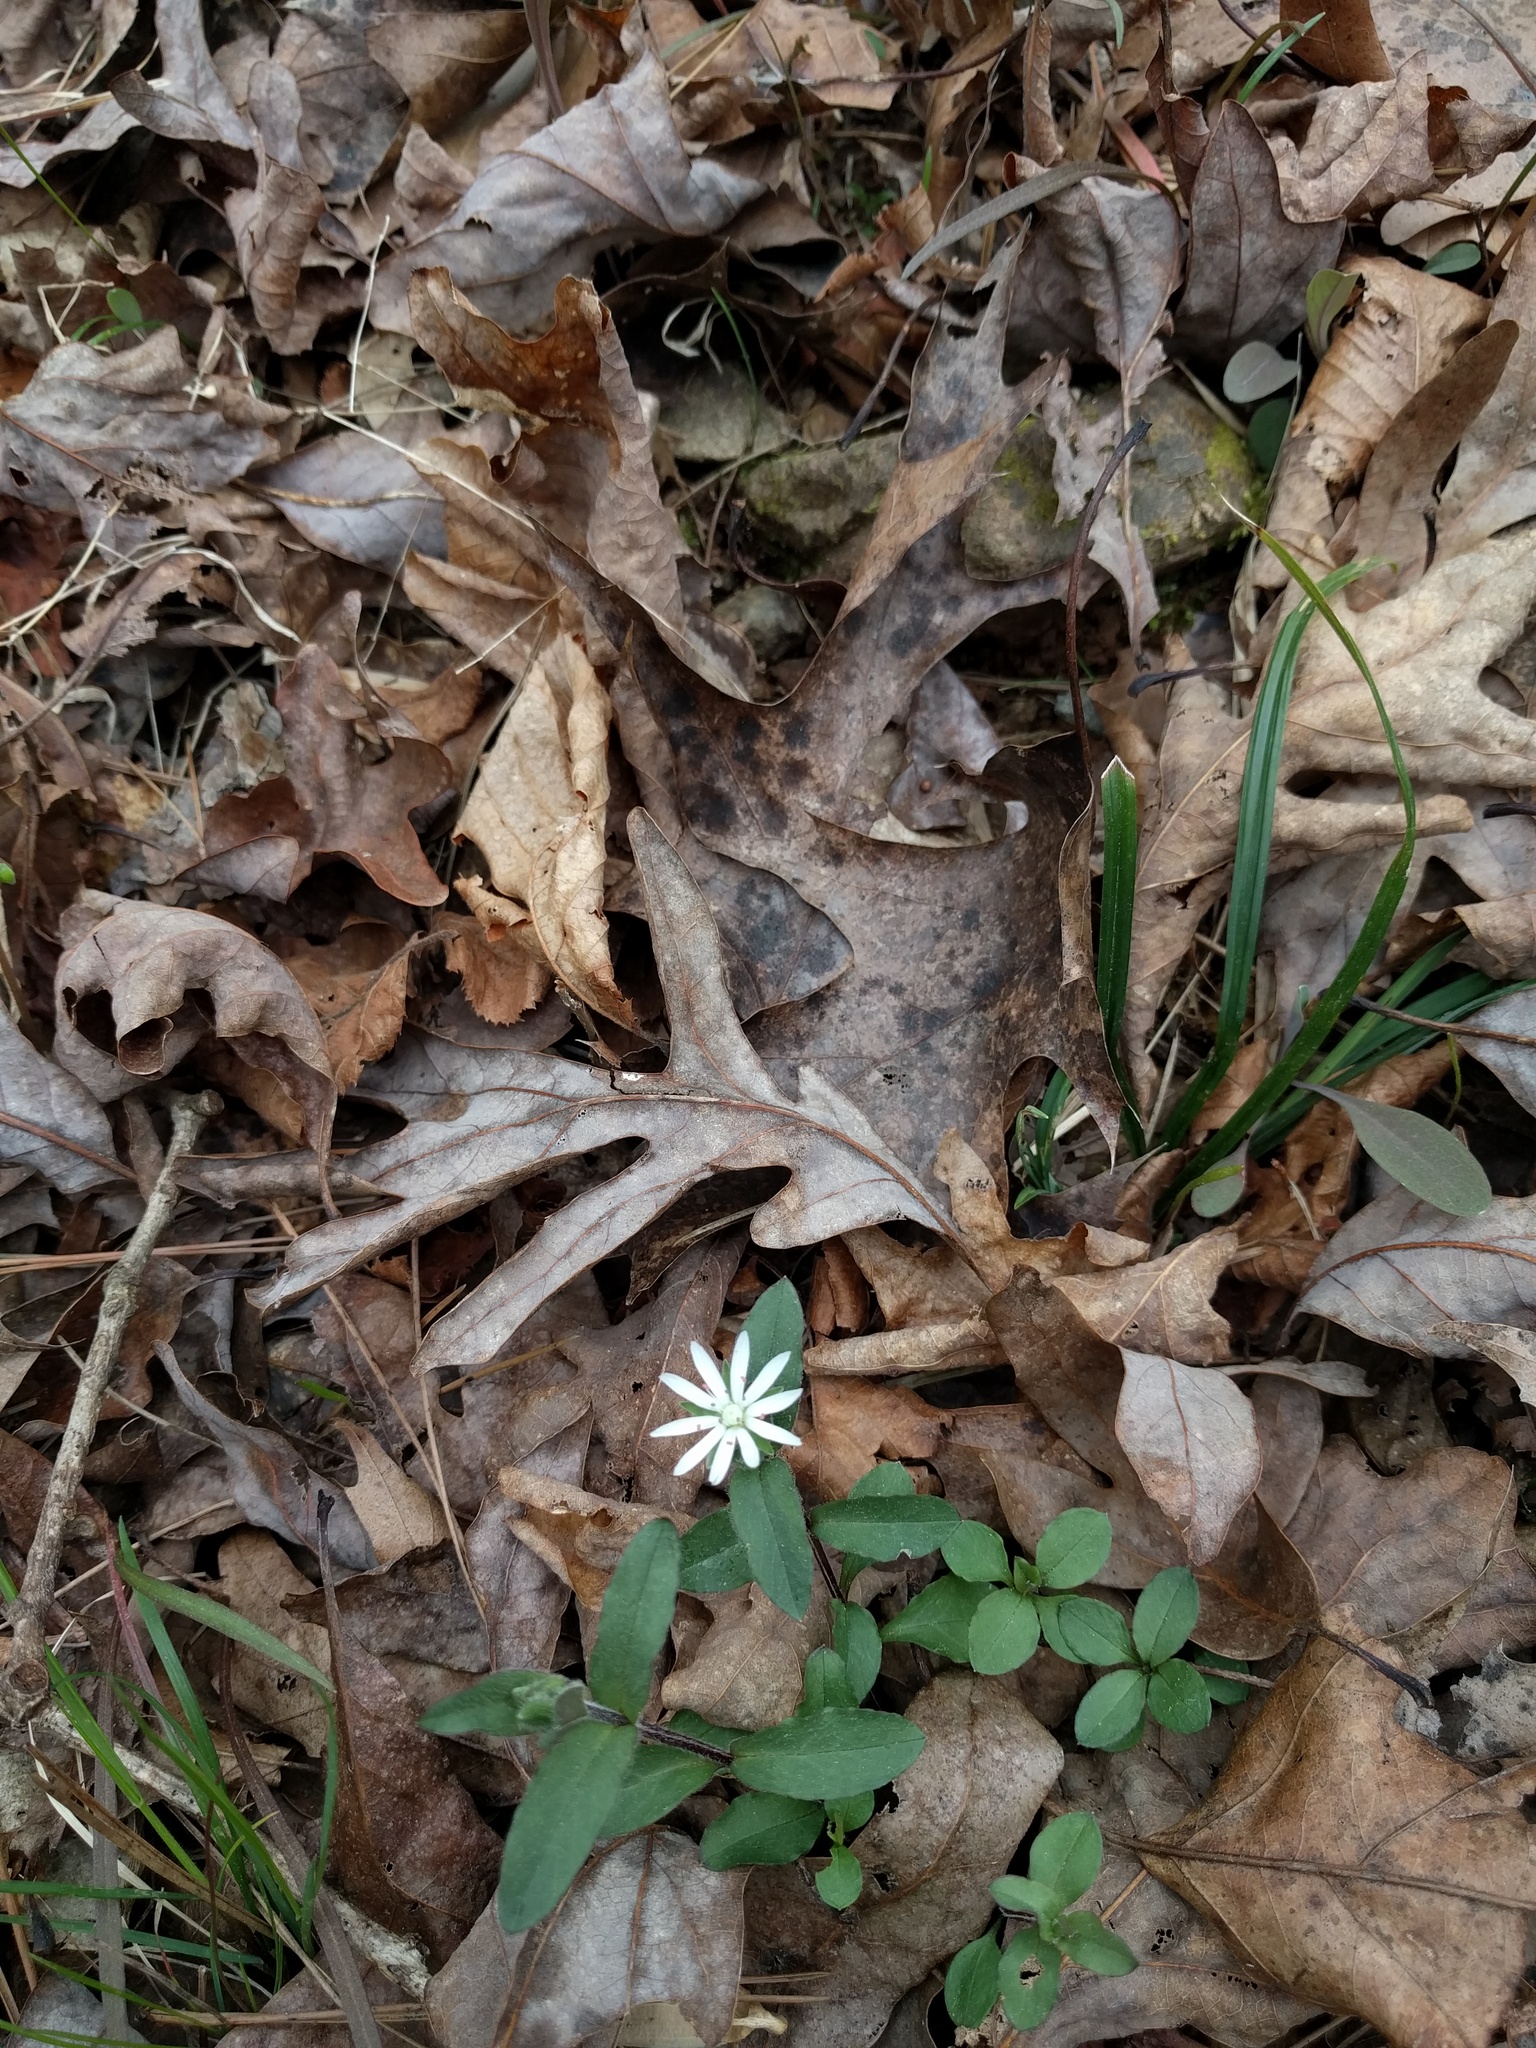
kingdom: Plantae
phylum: Tracheophyta
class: Magnoliopsida
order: Caryophyllales
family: Caryophyllaceae
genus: Stellaria
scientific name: Stellaria pubera
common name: Star chickweed
